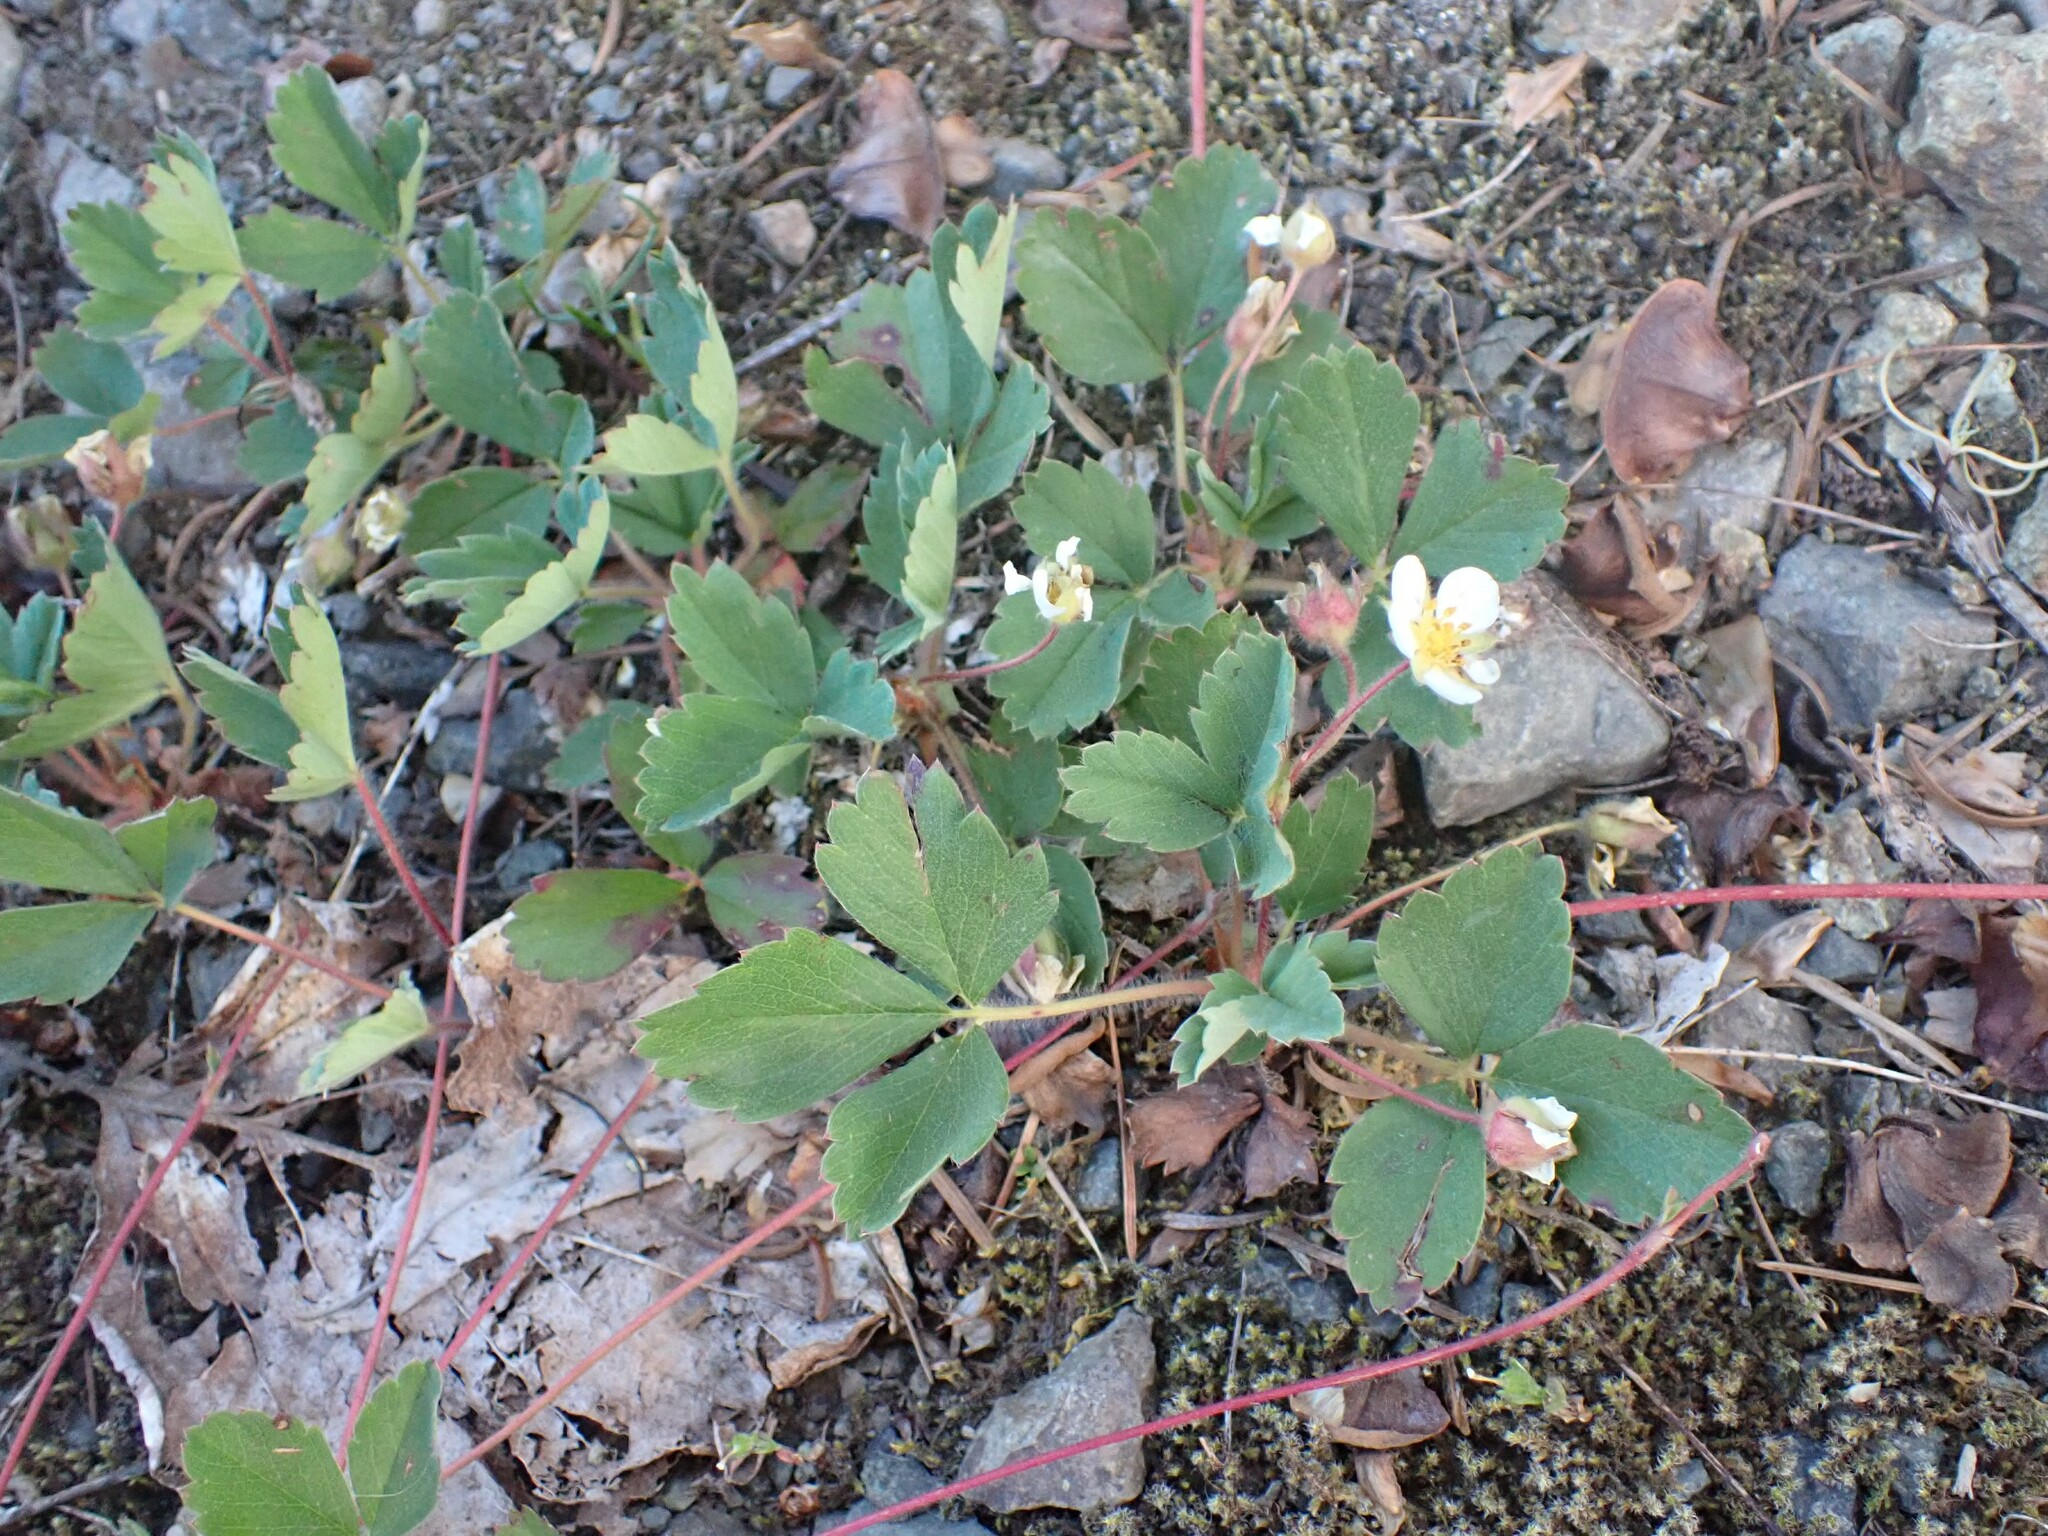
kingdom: Plantae
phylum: Tracheophyta
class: Magnoliopsida
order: Rosales
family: Rosaceae
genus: Fragaria
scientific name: Fragaria virginiana
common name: Thickleaved wild strawberry
